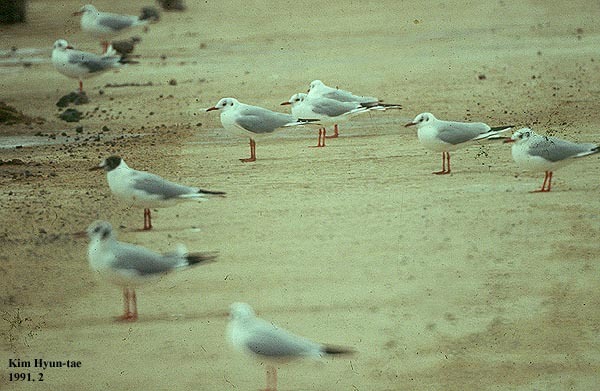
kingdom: Animalia
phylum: Chordata
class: Aves
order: Charadriiformes
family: Laridae
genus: Chroicocephalus
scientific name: Chroicocephalus ridibundus
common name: Black-headed gull
